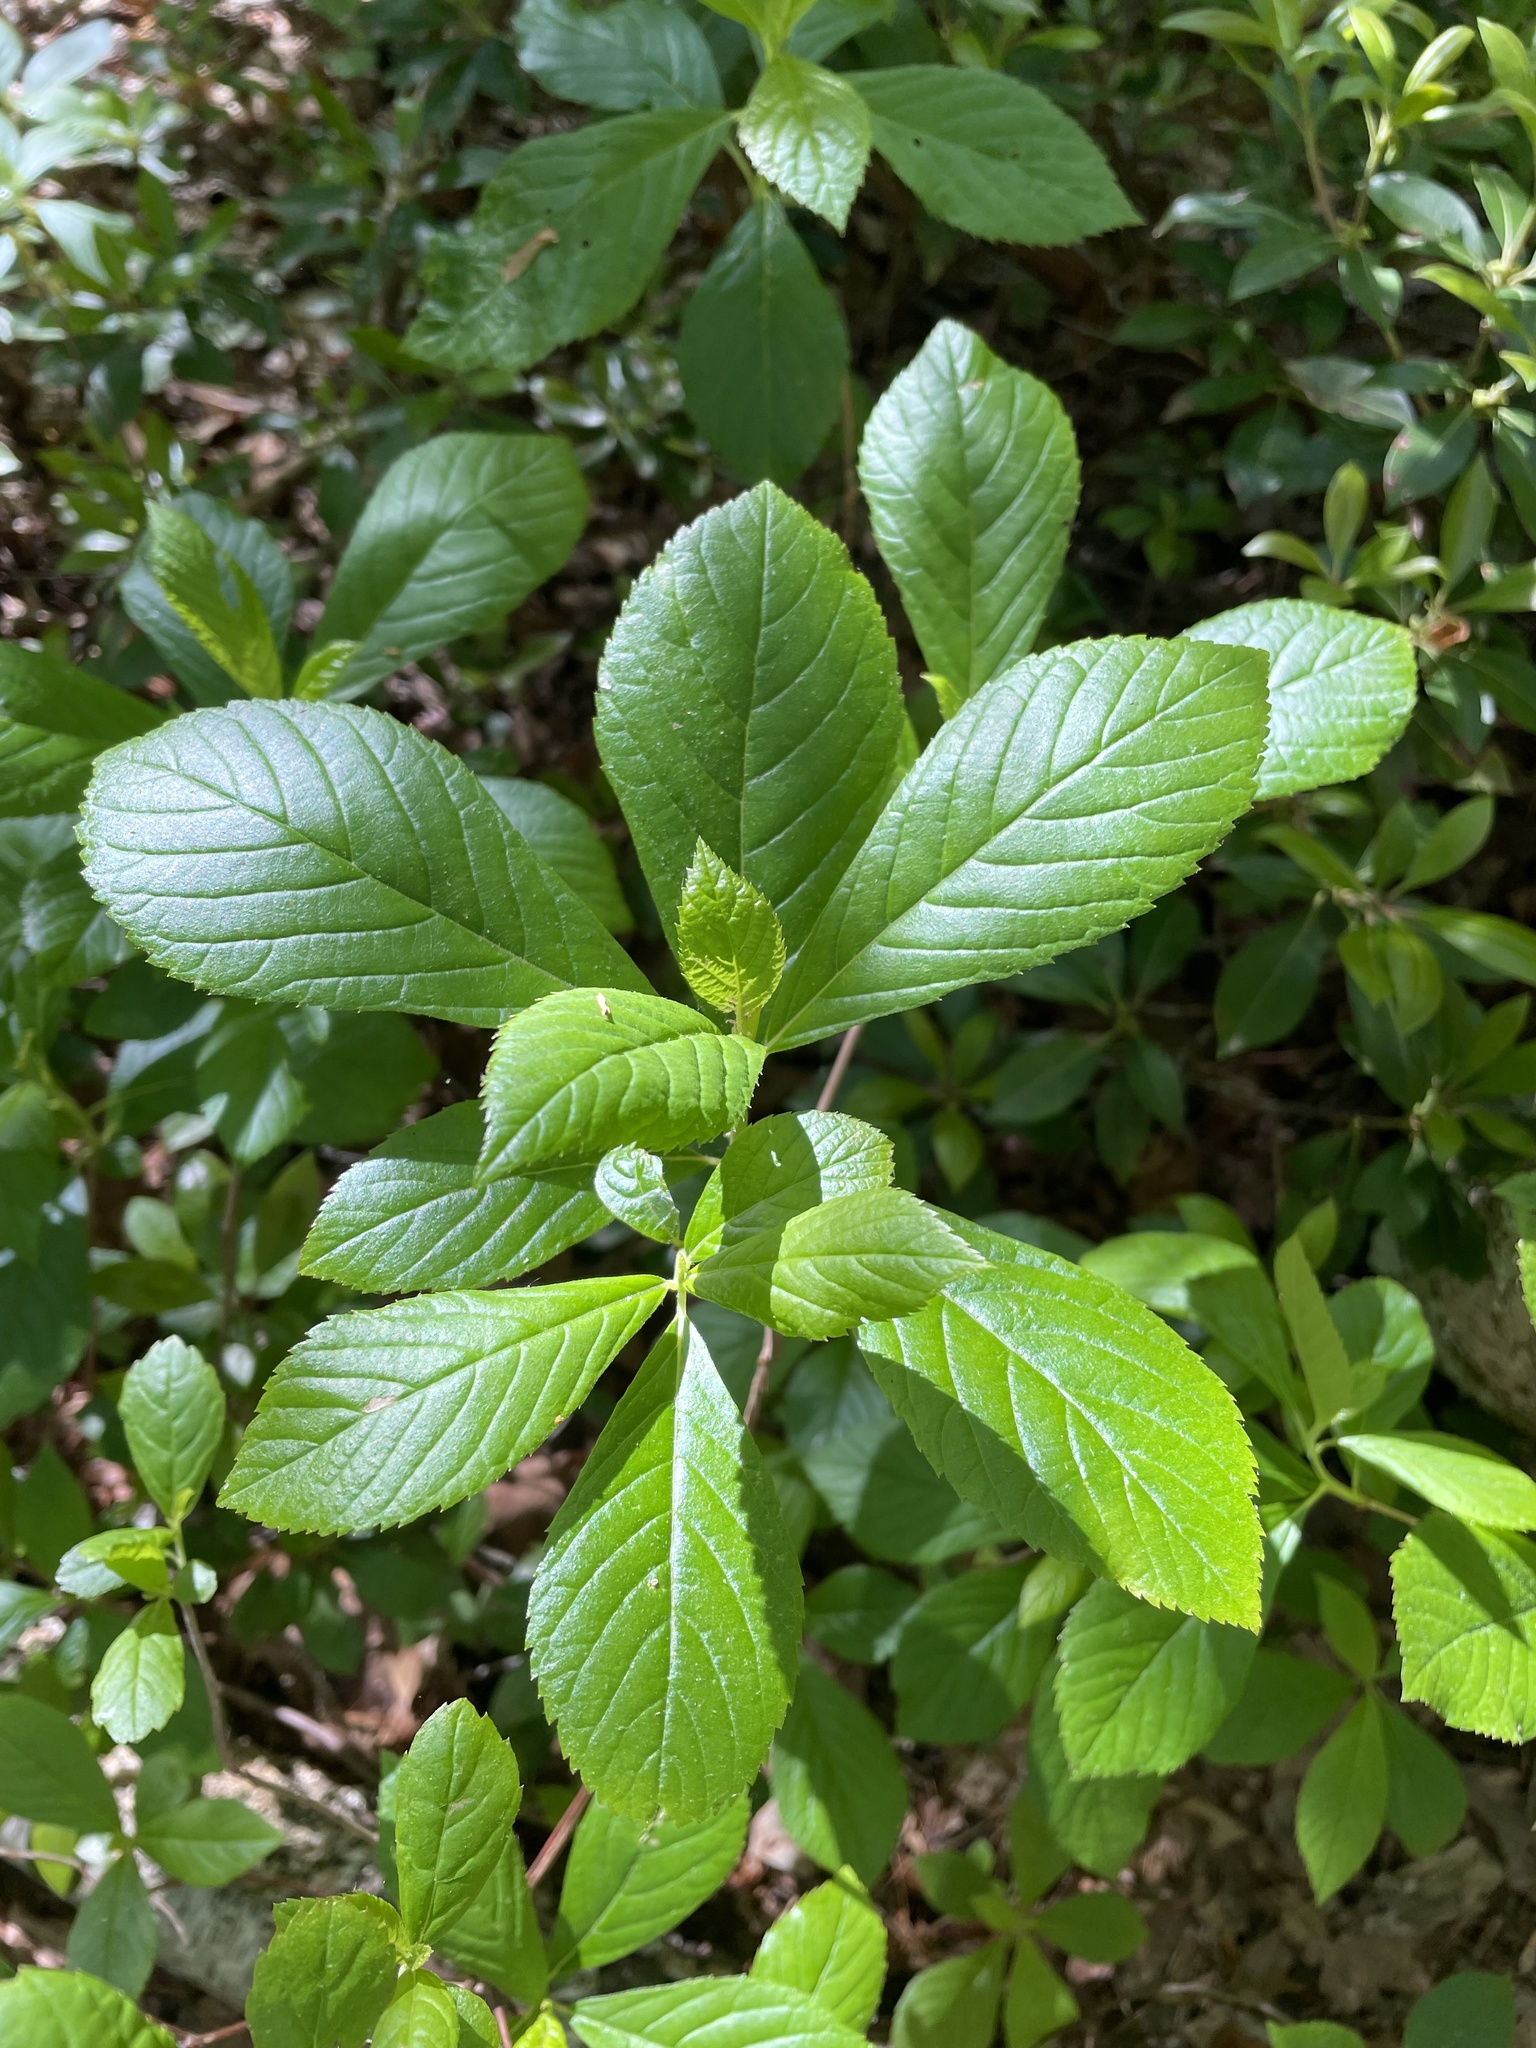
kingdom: Plantae
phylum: Tracheophyta
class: Magnoliopsida
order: Ericales
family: Clethraceae
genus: Clethra
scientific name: Clethra alnifolia
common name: Sweet pepperbush
